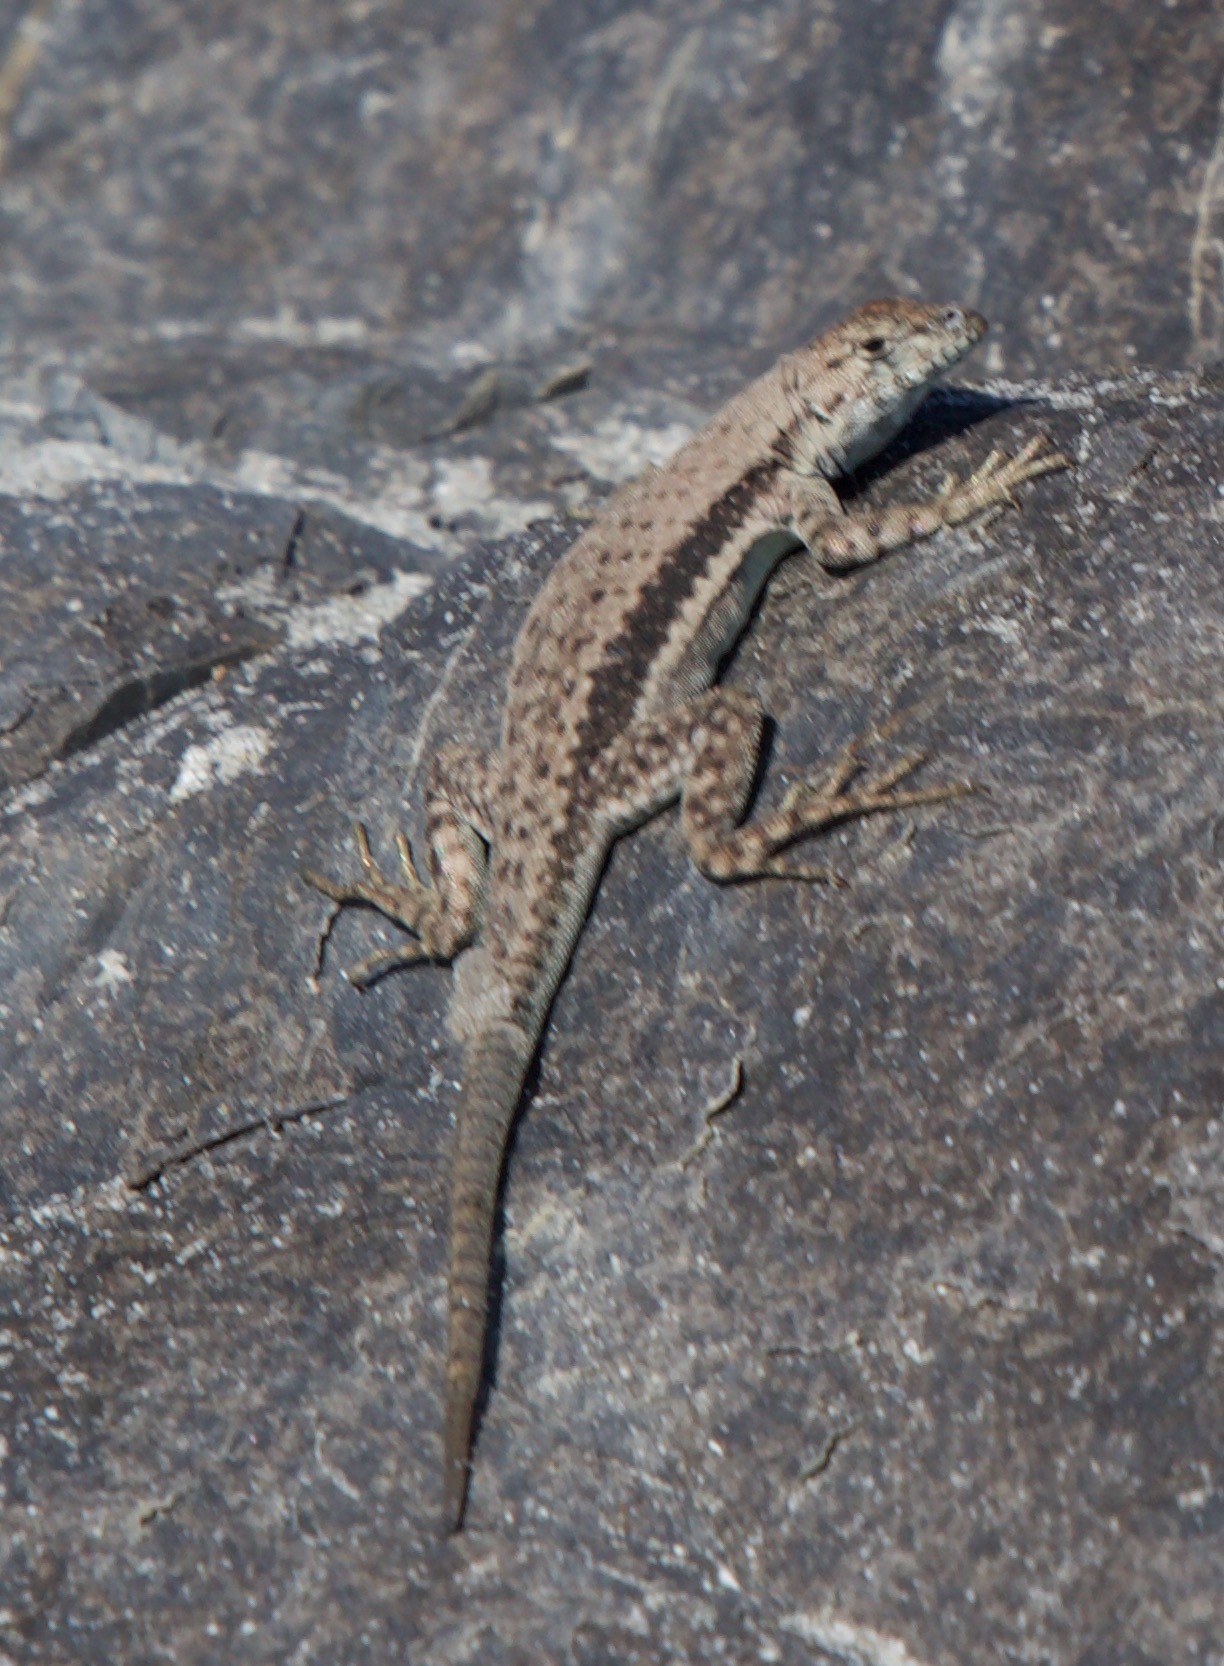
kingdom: Animalia
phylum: Chordata
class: Squamata
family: Tropiduridae
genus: Microlophus
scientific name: Microlophus atacamensis
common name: Atacamen pacific iguana
